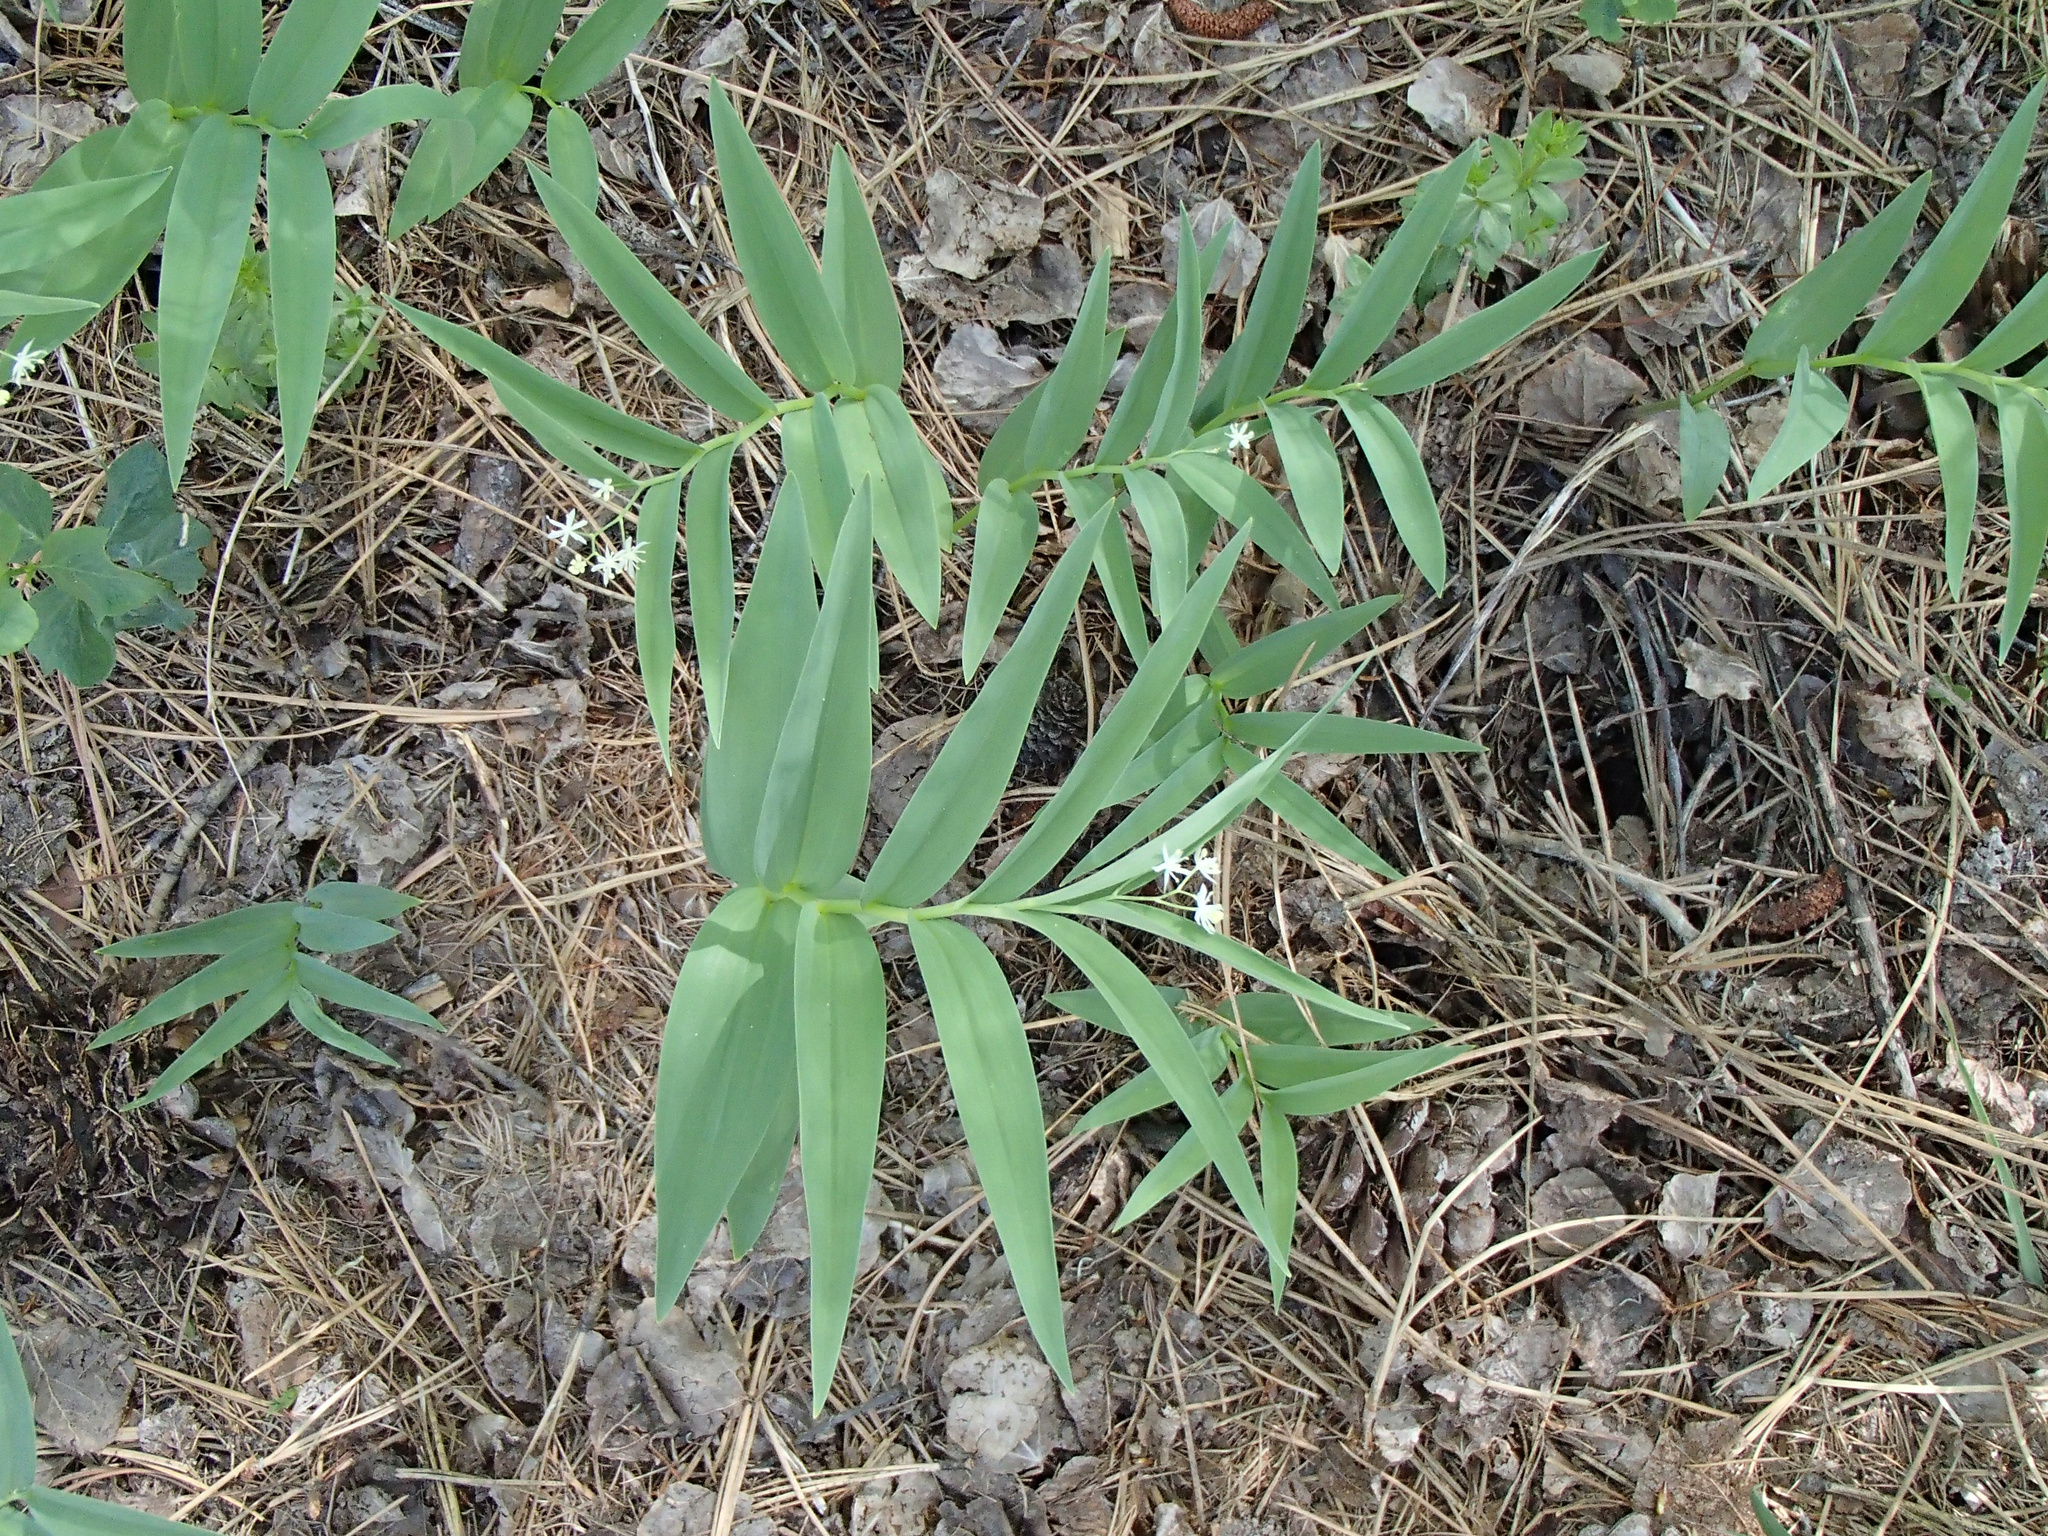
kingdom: Plantae
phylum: Tracheophyta
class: Liliopsida
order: Asparagales
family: Asparagaceae
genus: Maianthemum
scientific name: Maianthemum stellatum
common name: Little false solomon's seal
